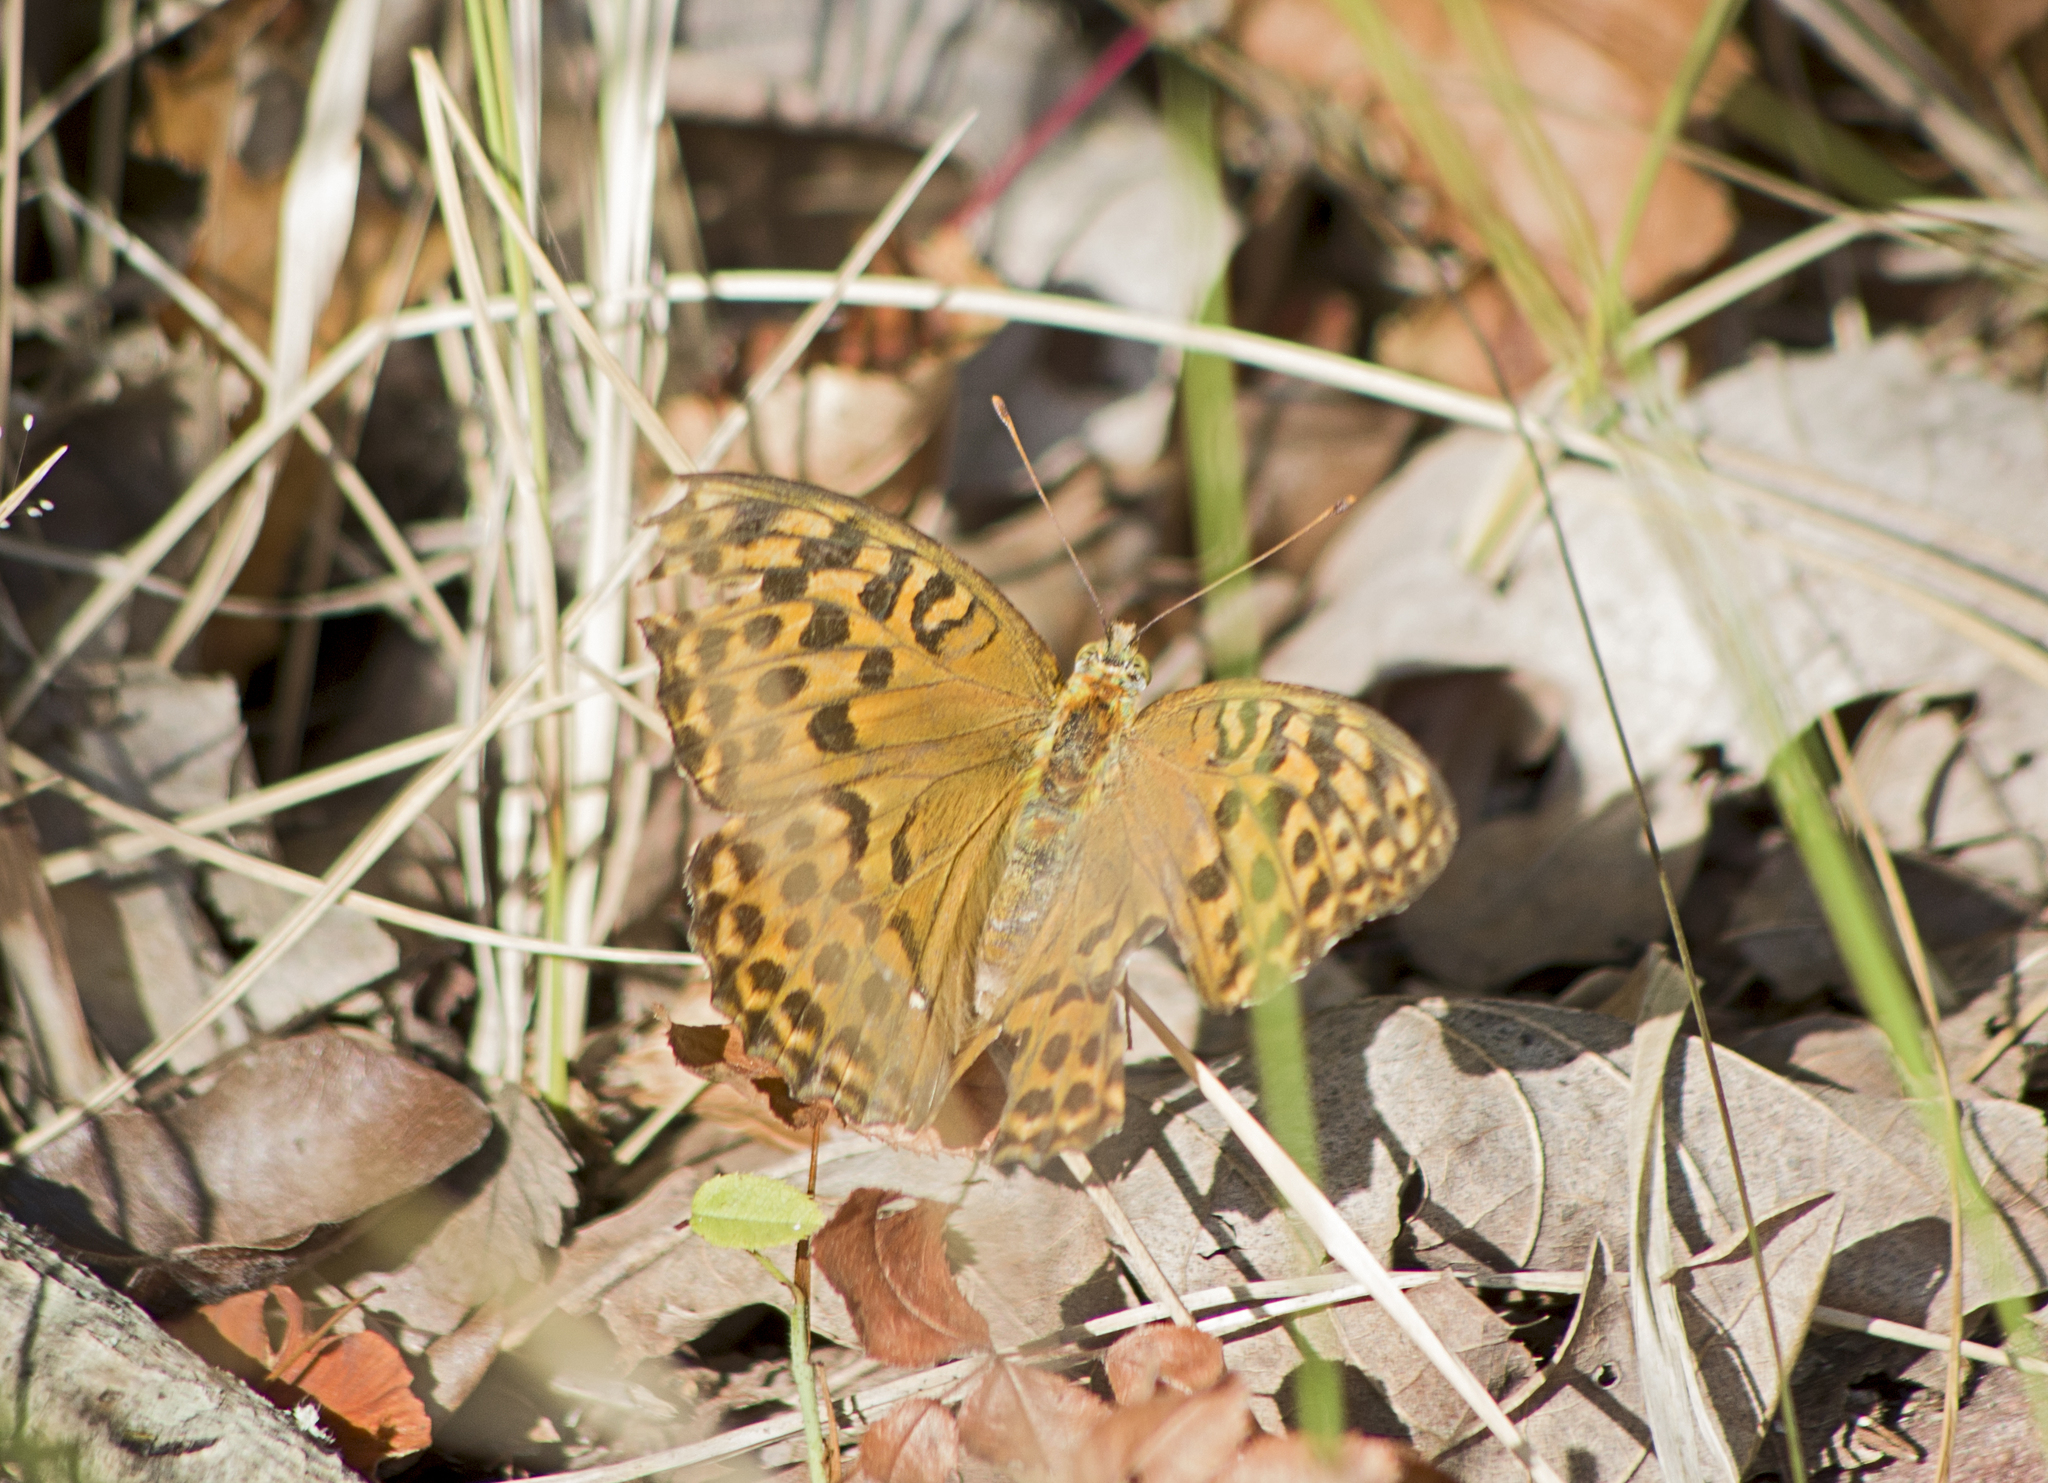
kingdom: Animalia
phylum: Arthropoda
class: Insecta
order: Lepidoptera
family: Nymphalidae
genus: Argynnis
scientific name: Argynnis paphia
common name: Silver-washed fritillary
